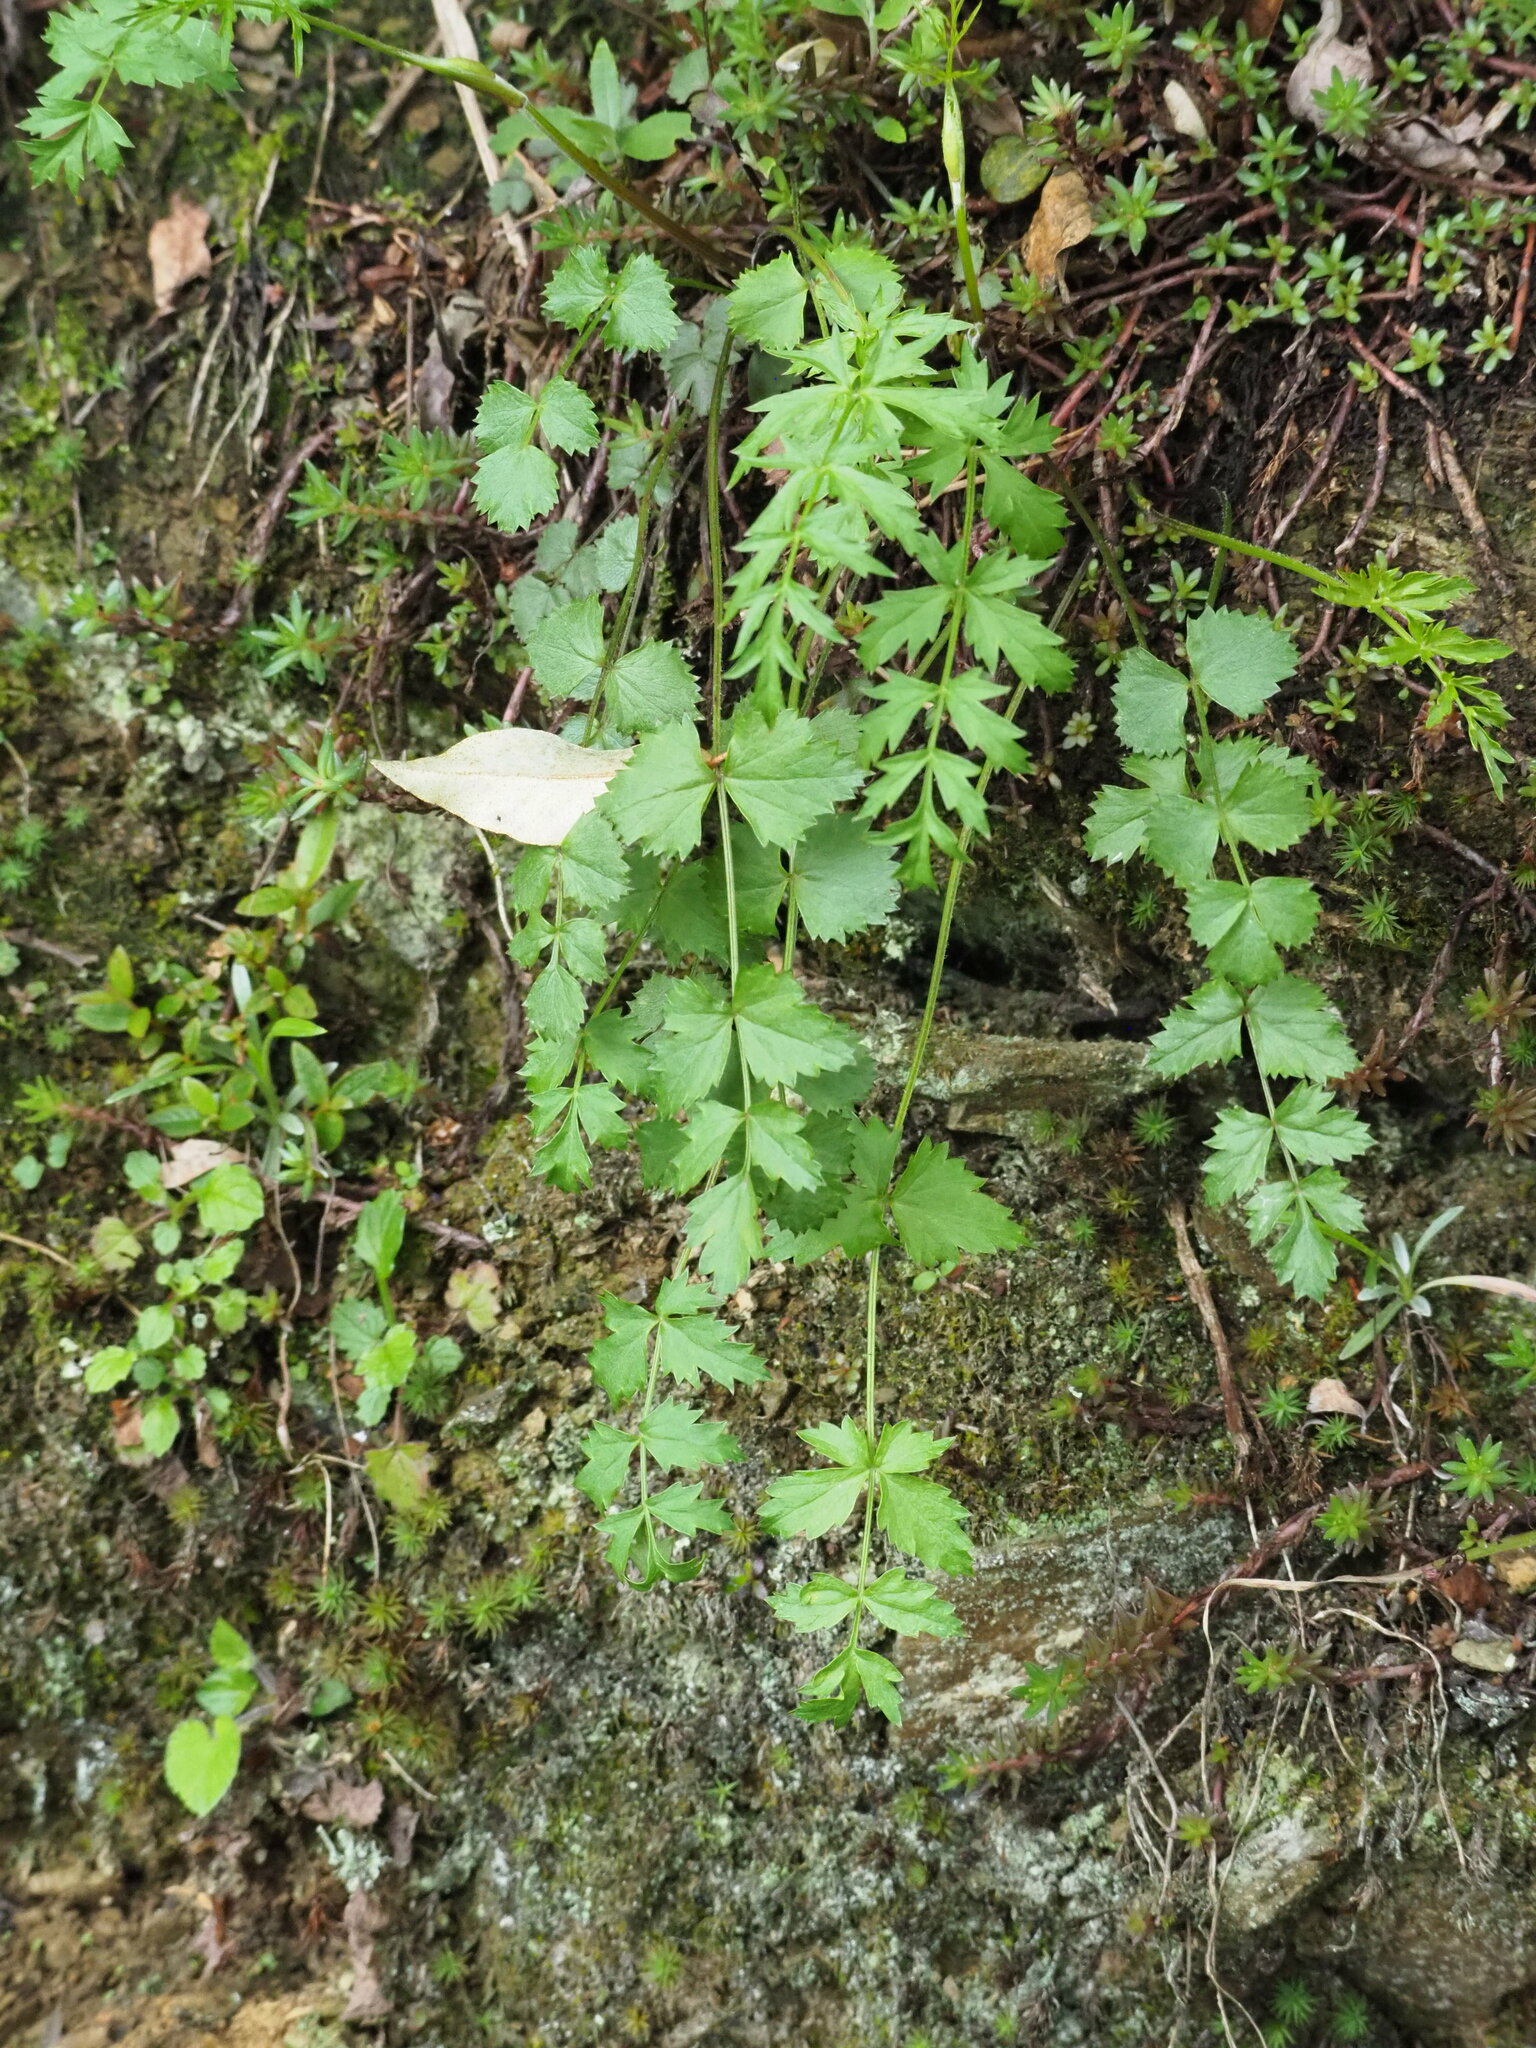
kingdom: Plantae
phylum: Tracheophyta
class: Magnoliopsida
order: Apiales
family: Apiaceae
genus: Pimpinella
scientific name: Pimpinella niitakayamensis
